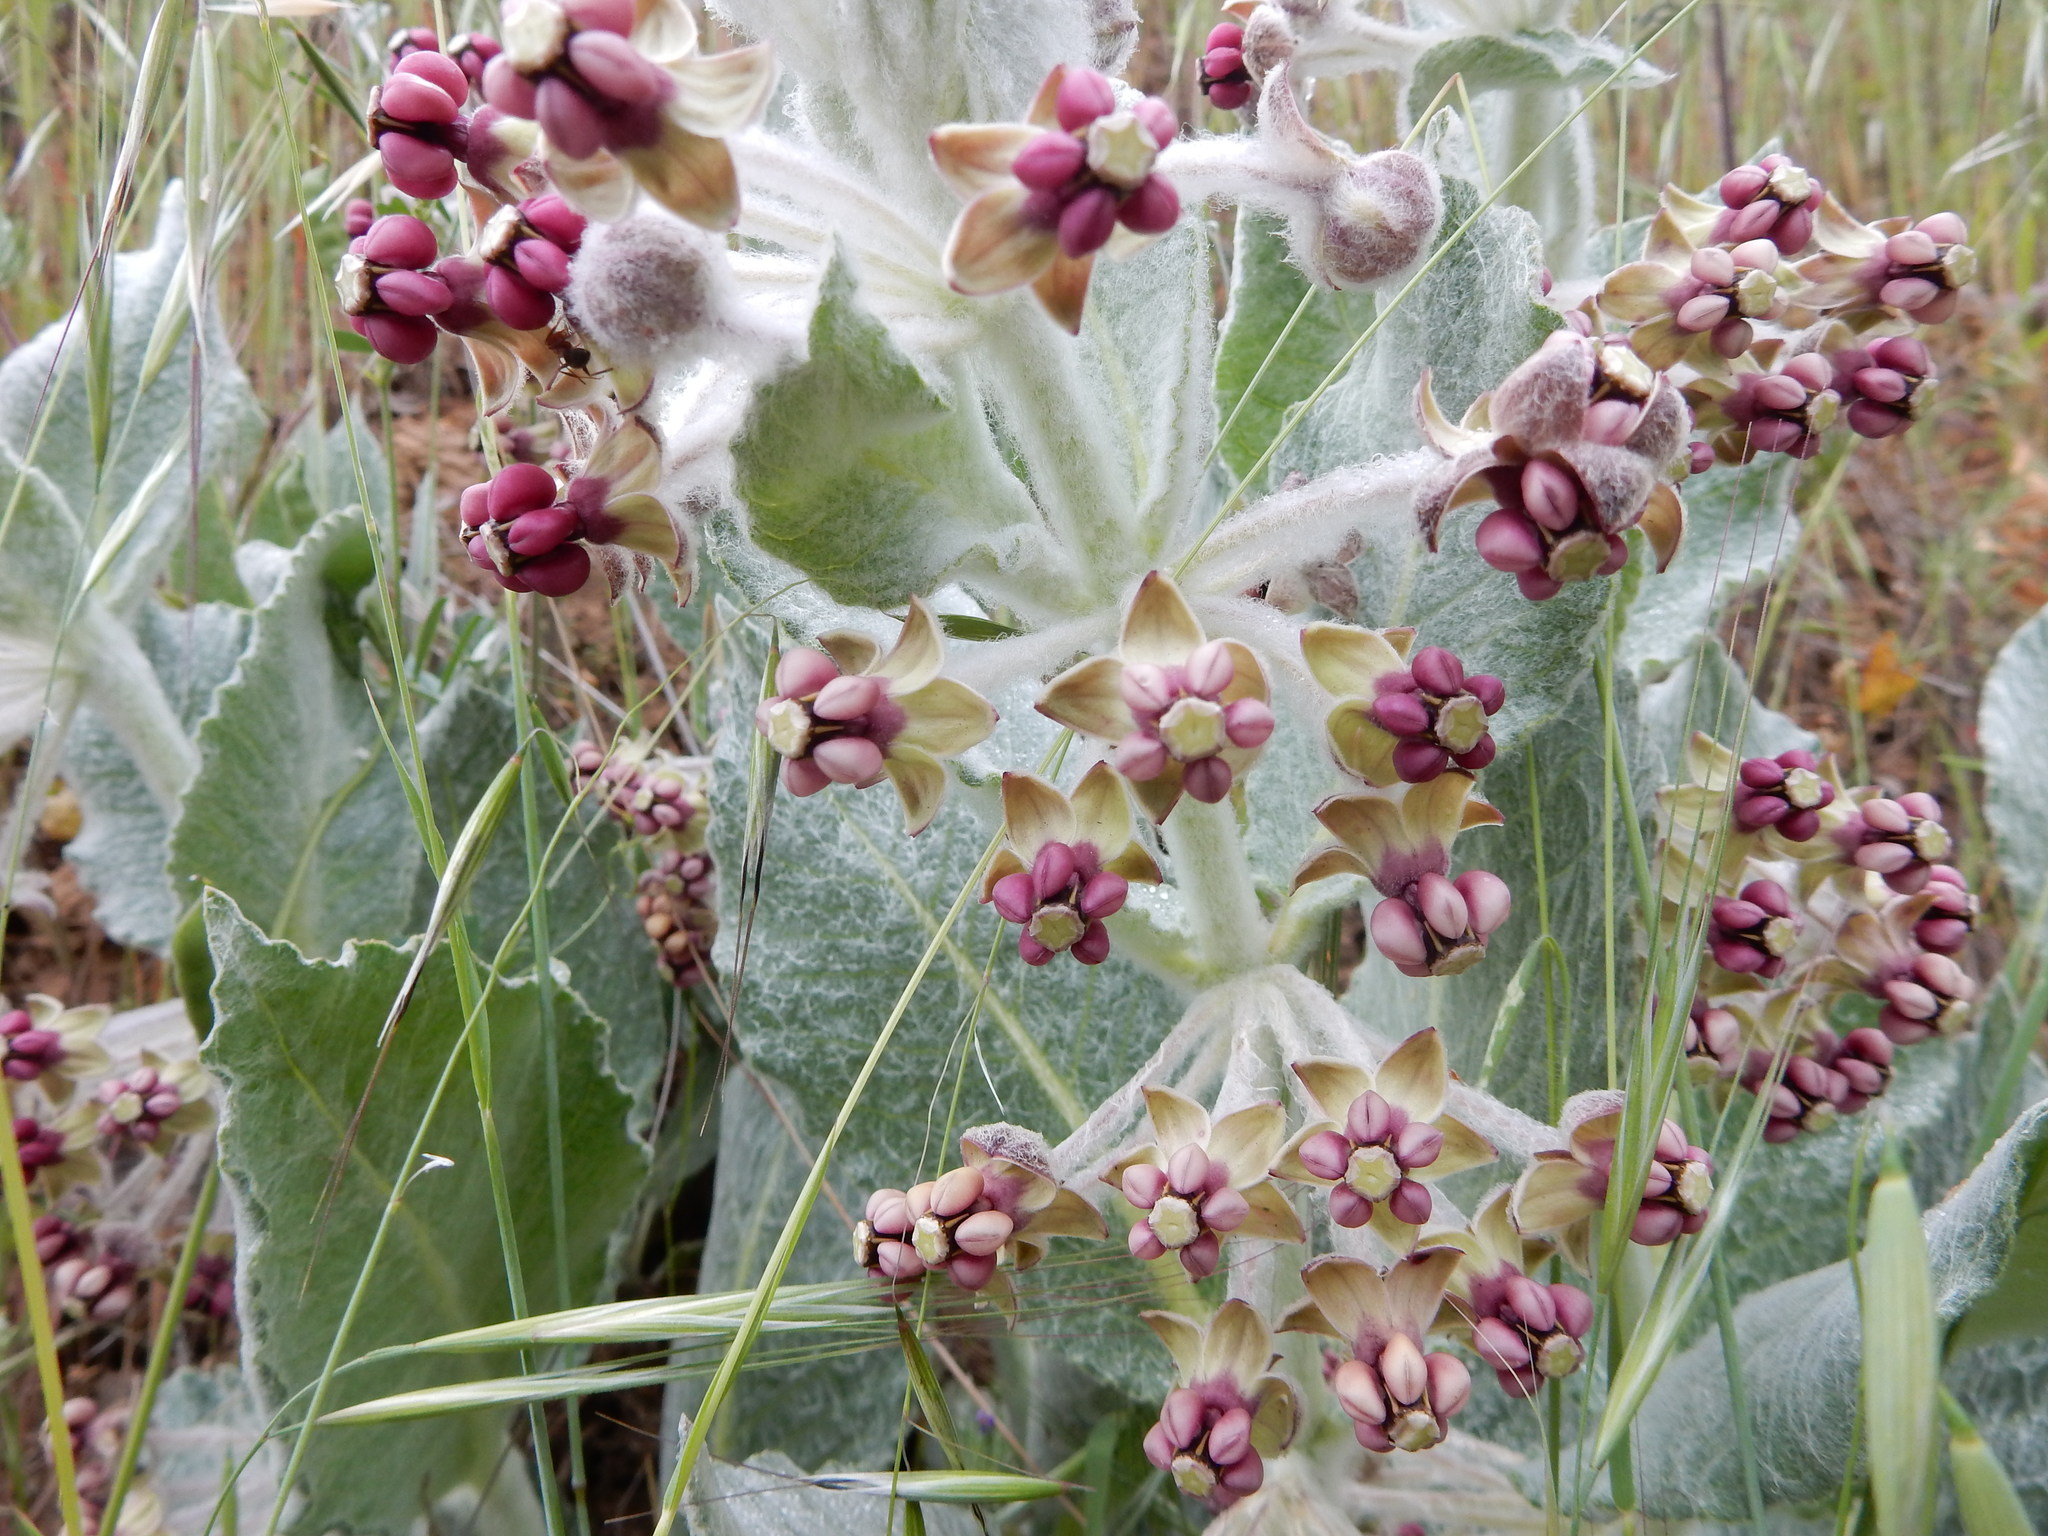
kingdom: Plantae
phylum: Tracheophyta
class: Magnoliopsida
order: Gentianales
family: Apocynaceae
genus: Asclepias
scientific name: Asclepias californica
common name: California milkweed
